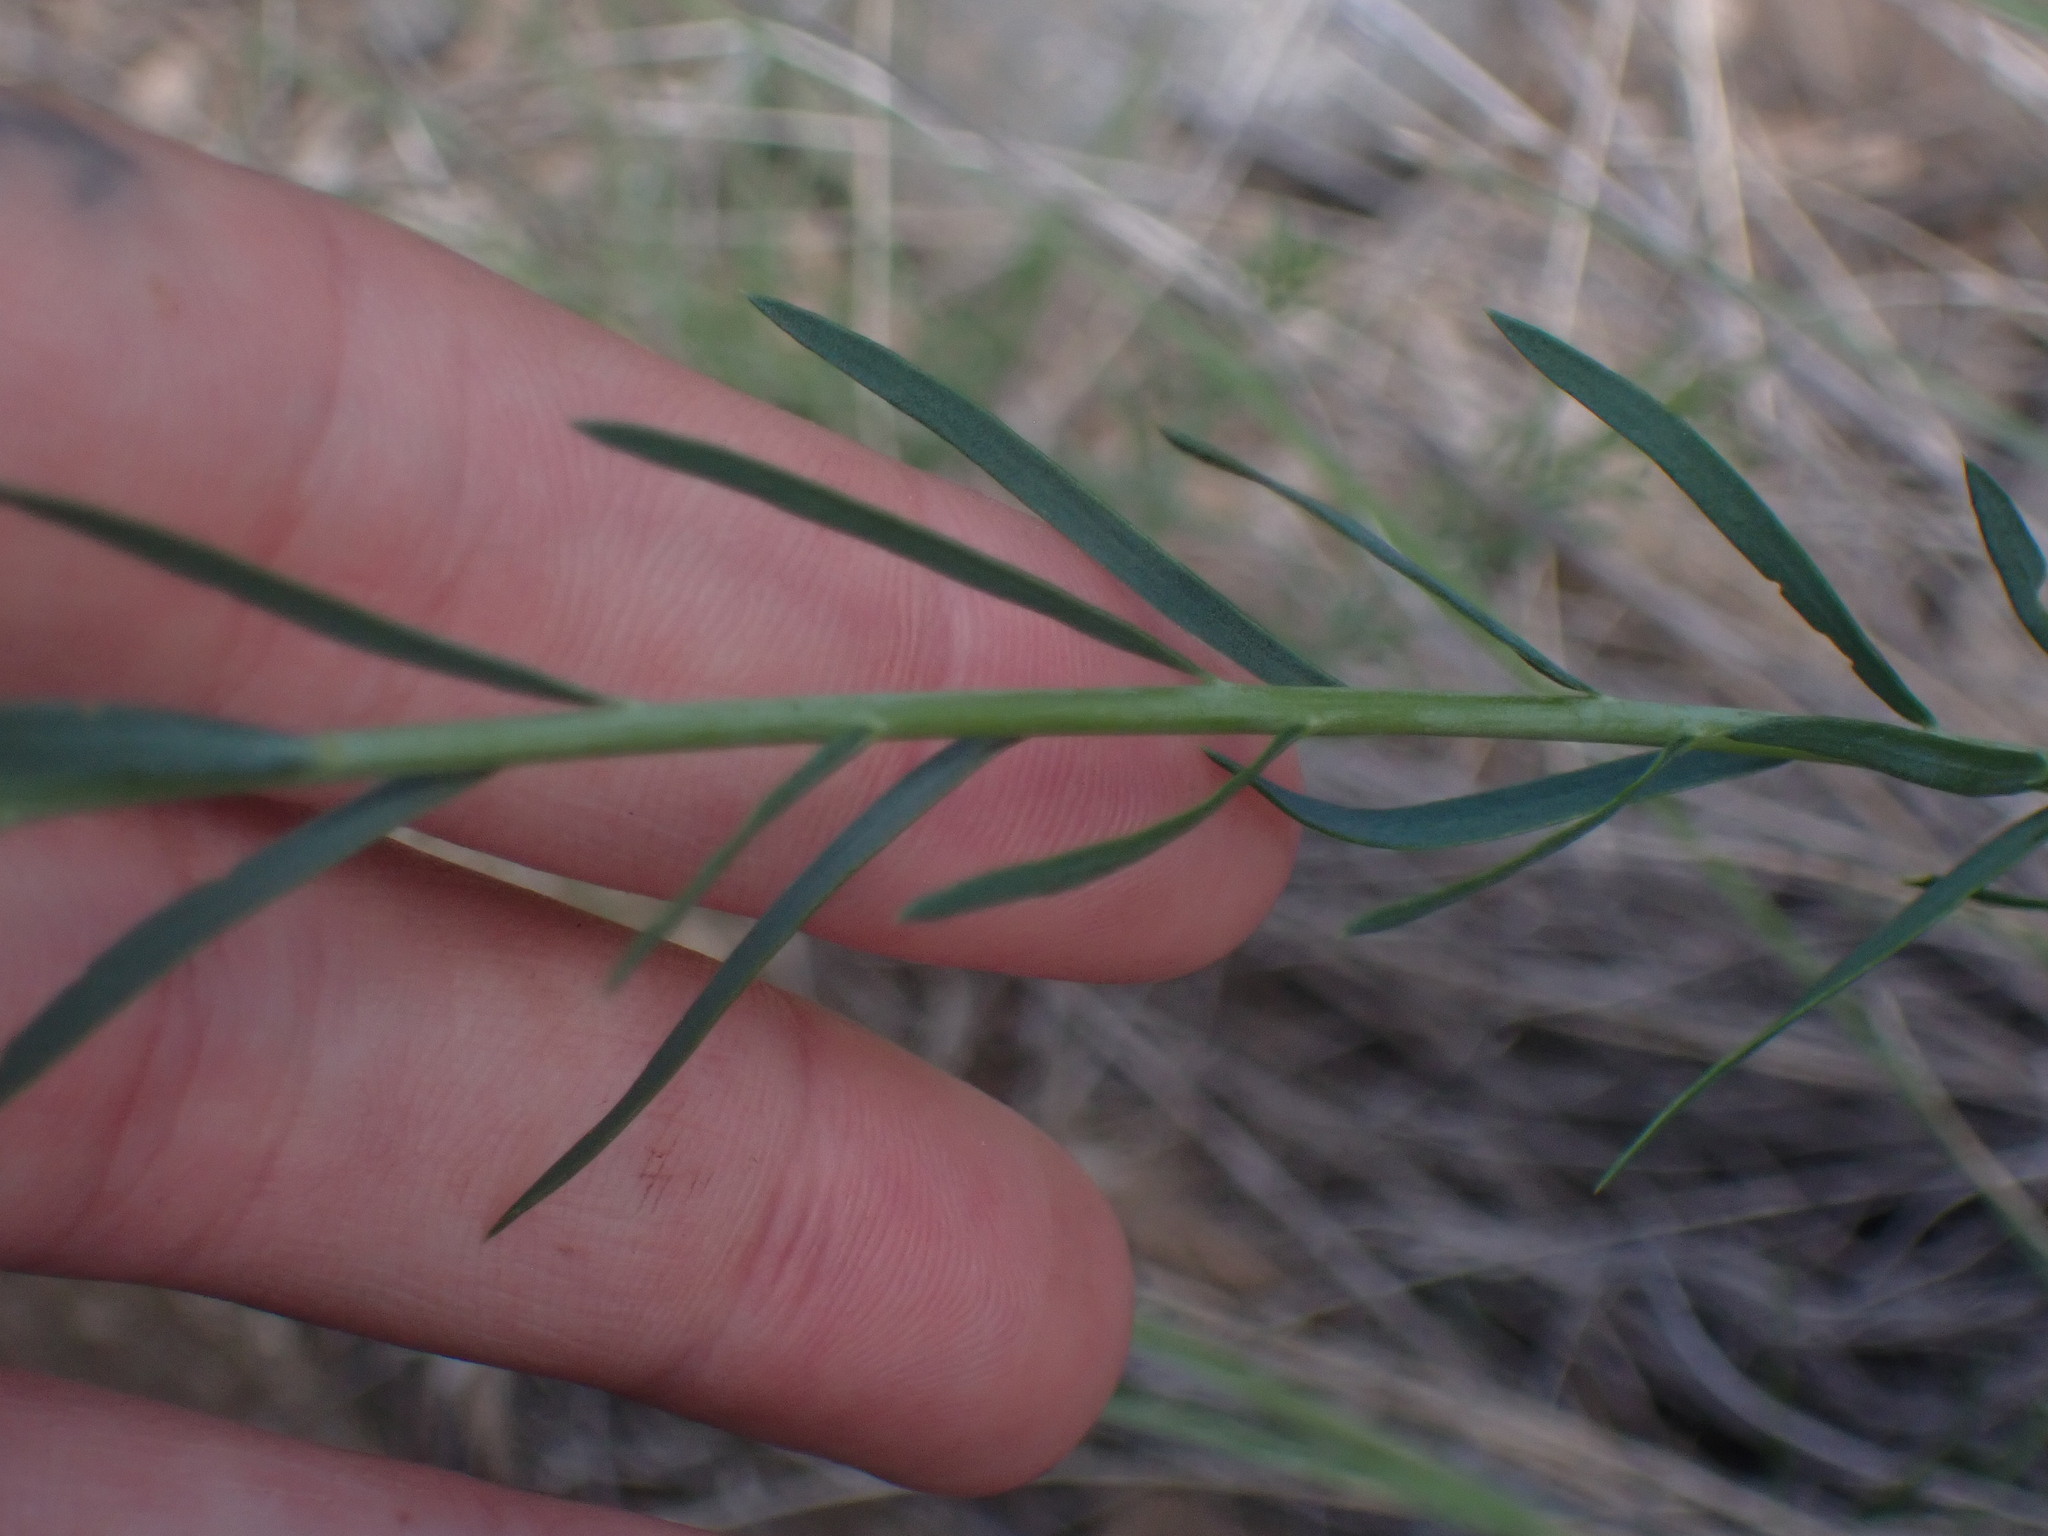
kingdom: Plantae
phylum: Tracheophyta
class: Magnoliopsida
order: Malpighiales
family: Linaceae
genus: Linum
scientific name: Linum lewisii
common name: Prairie flax
